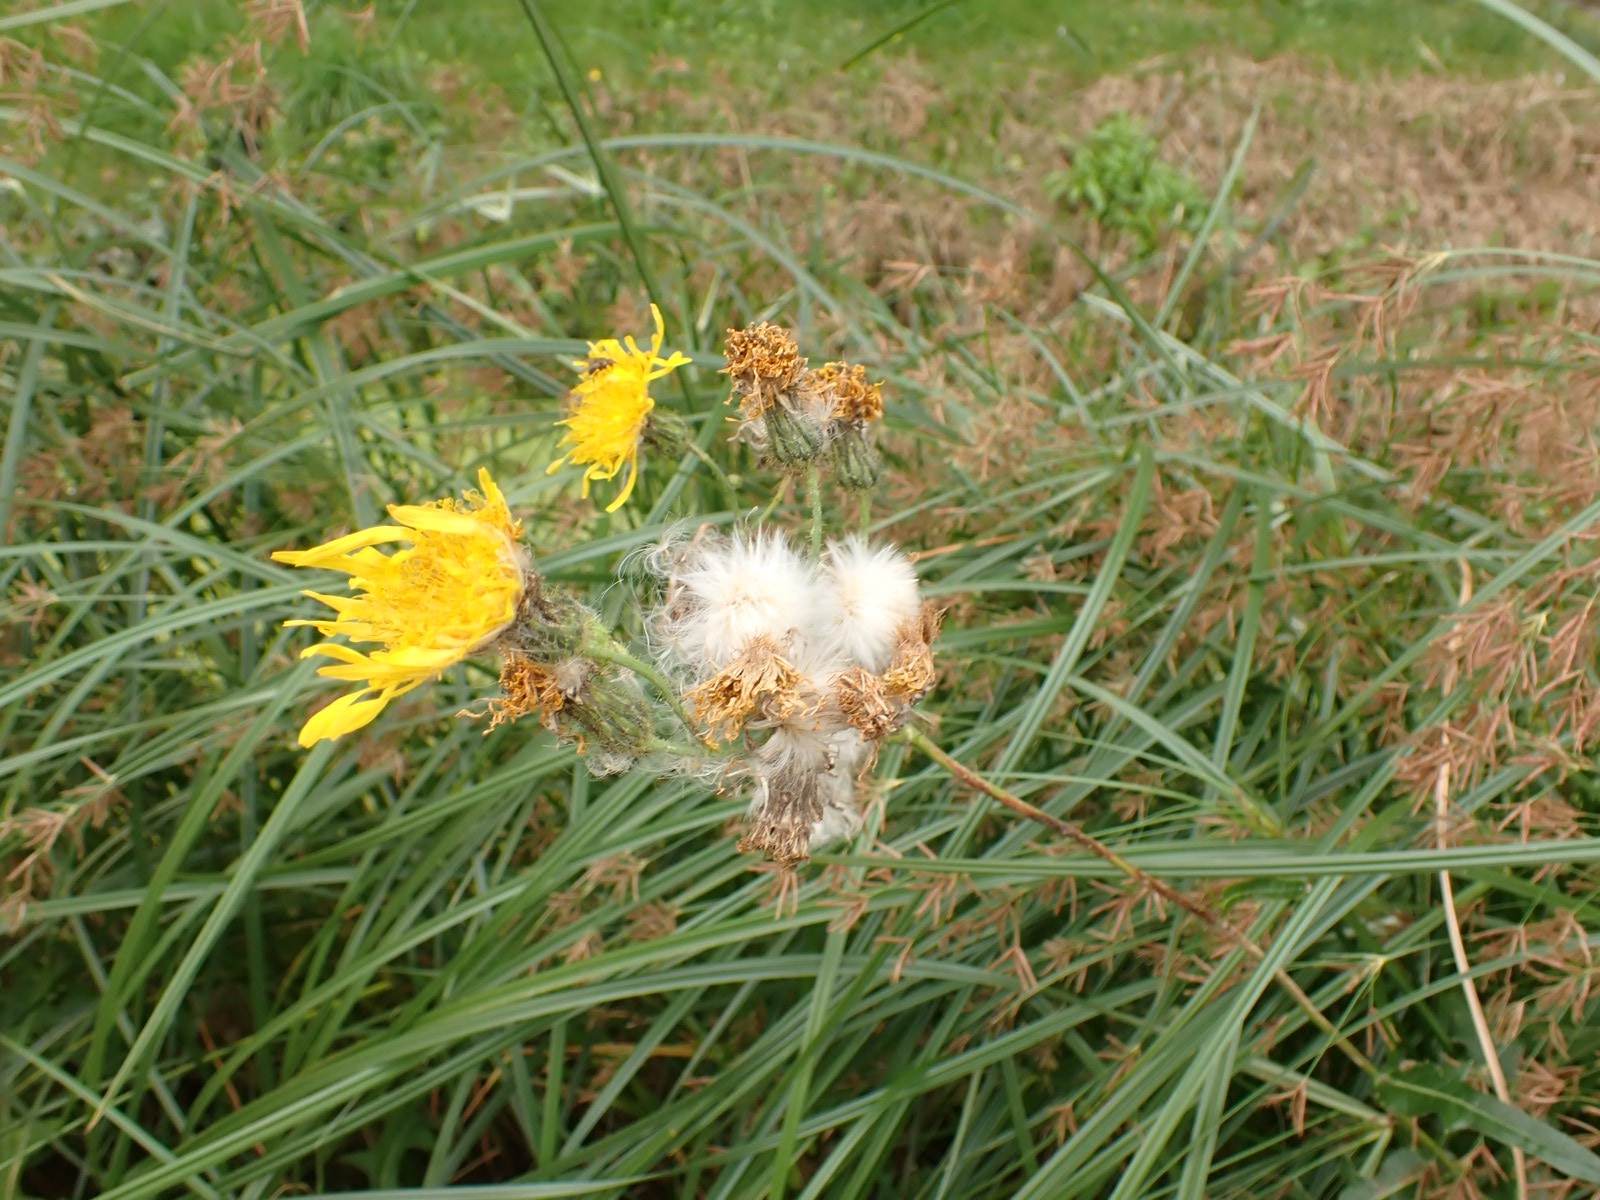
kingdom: Plantae
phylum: Tracheophyta
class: Magnoliopsida
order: Asterales
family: Asteraceae
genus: Sonchus
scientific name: Sonchus arvensis
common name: Perennial sow-thistle
